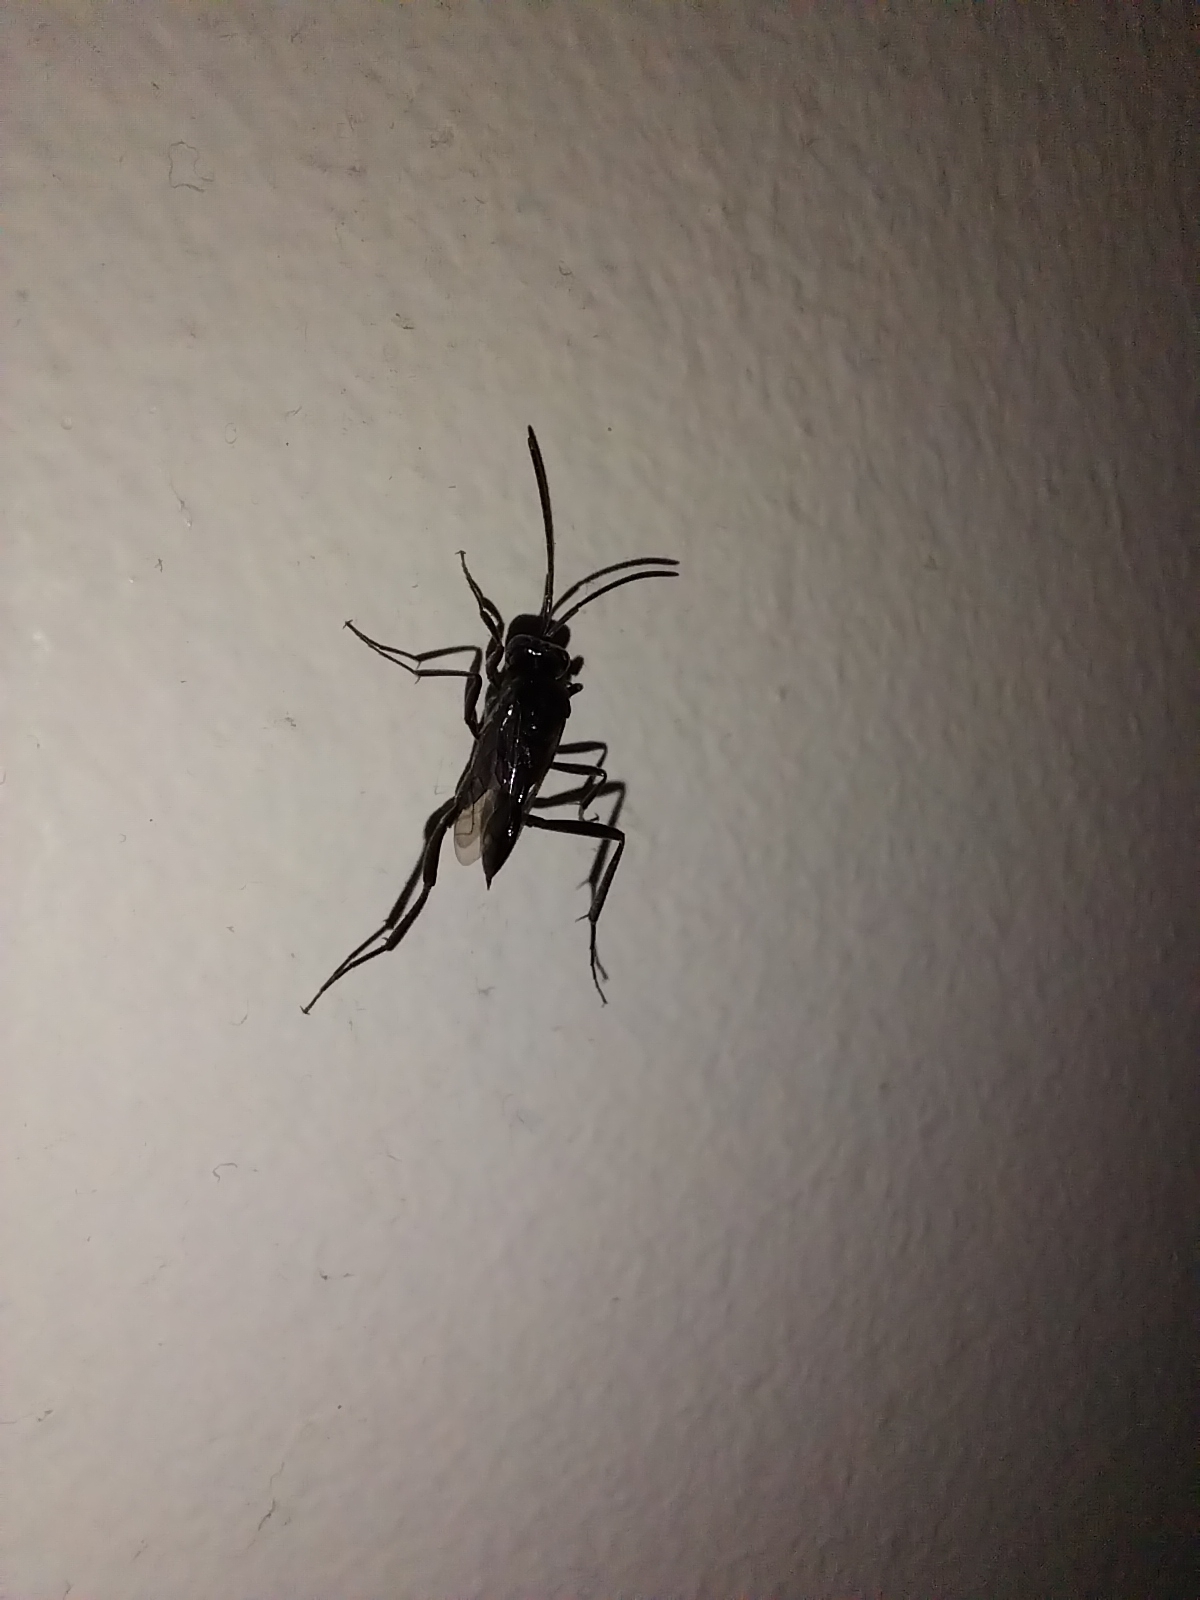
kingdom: Animalia
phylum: Arthropoda
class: Insecta
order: Hymenoptera
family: Evaniidae
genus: Evania
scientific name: Evania appendigaster
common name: Ensign wasp
